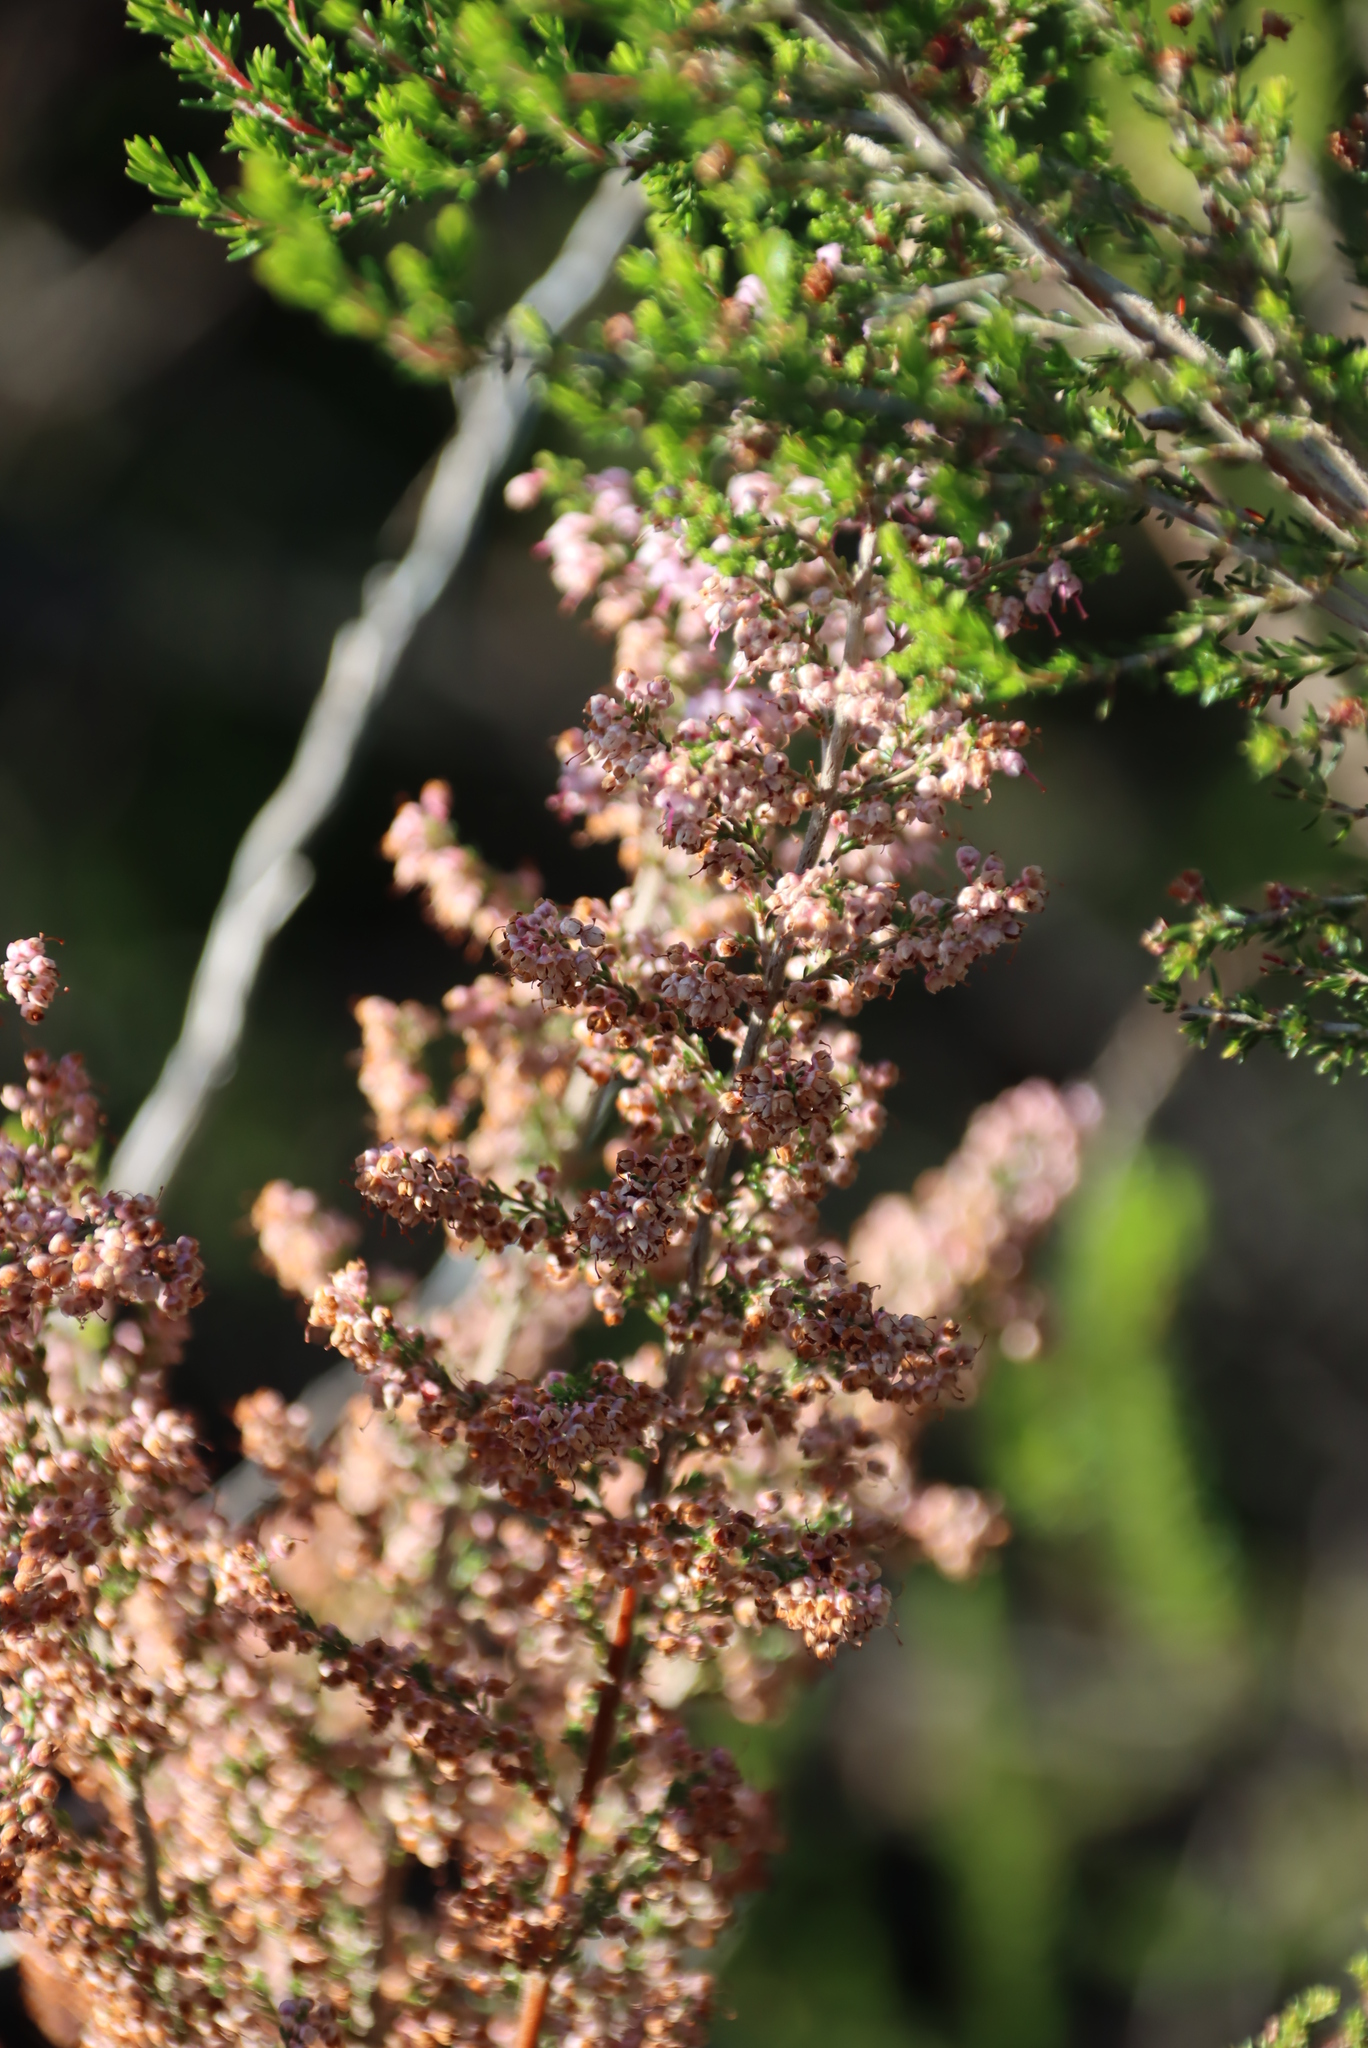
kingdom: Plantae
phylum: Tracheophyta
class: Magnoliopsida
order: Ericales
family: Ericaceae
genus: Erica
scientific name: Erica sparsa
